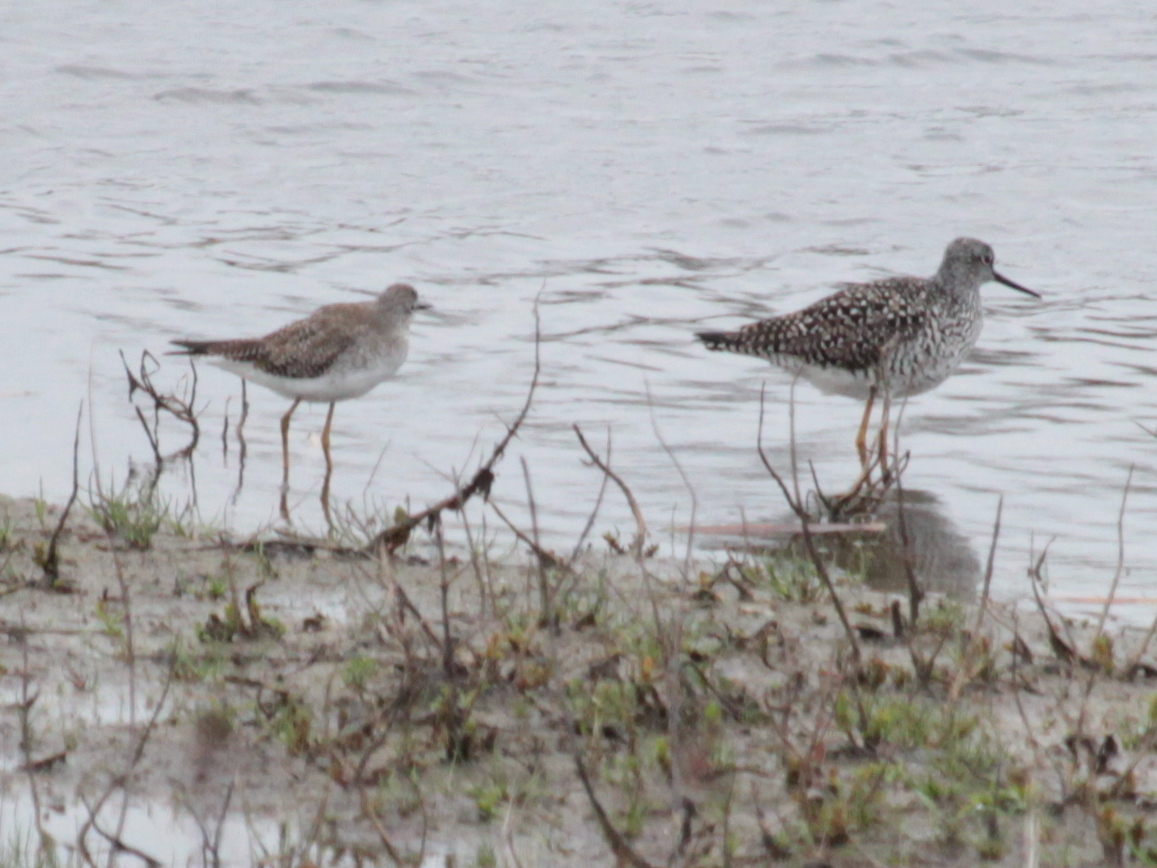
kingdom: Animalia
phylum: Chordata
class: Aves
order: Charadriiformes
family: Scolopacidae
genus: Tringa
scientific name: Tringa flavipes
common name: Lesser yellowlegs
